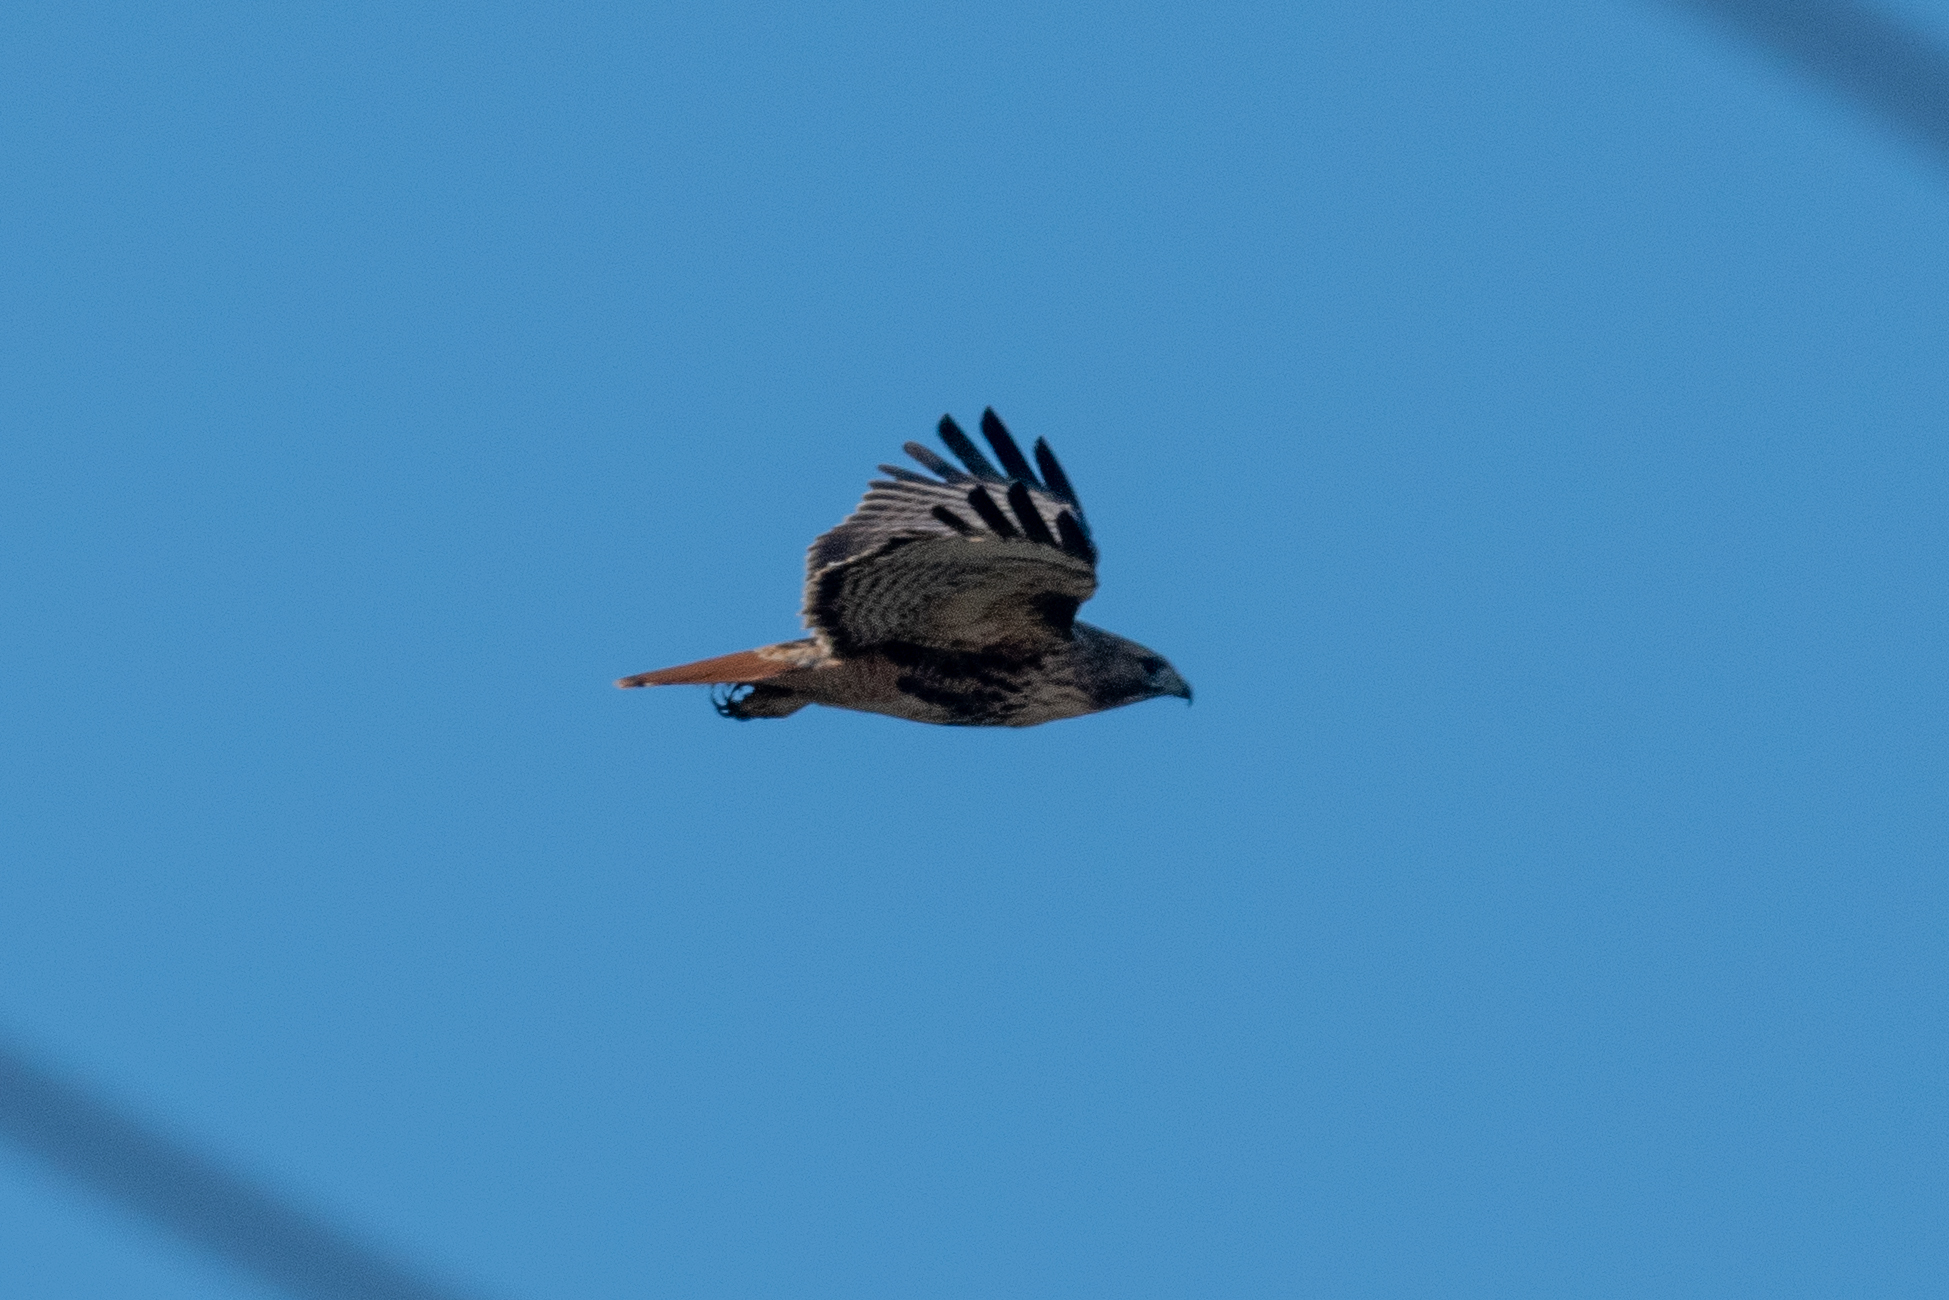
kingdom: Animalia
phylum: Chordata
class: Aves
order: Accipitriformes
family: Accipitridae
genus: Buteo
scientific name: Buteo jamaicensis
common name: Red-tailed hawk
